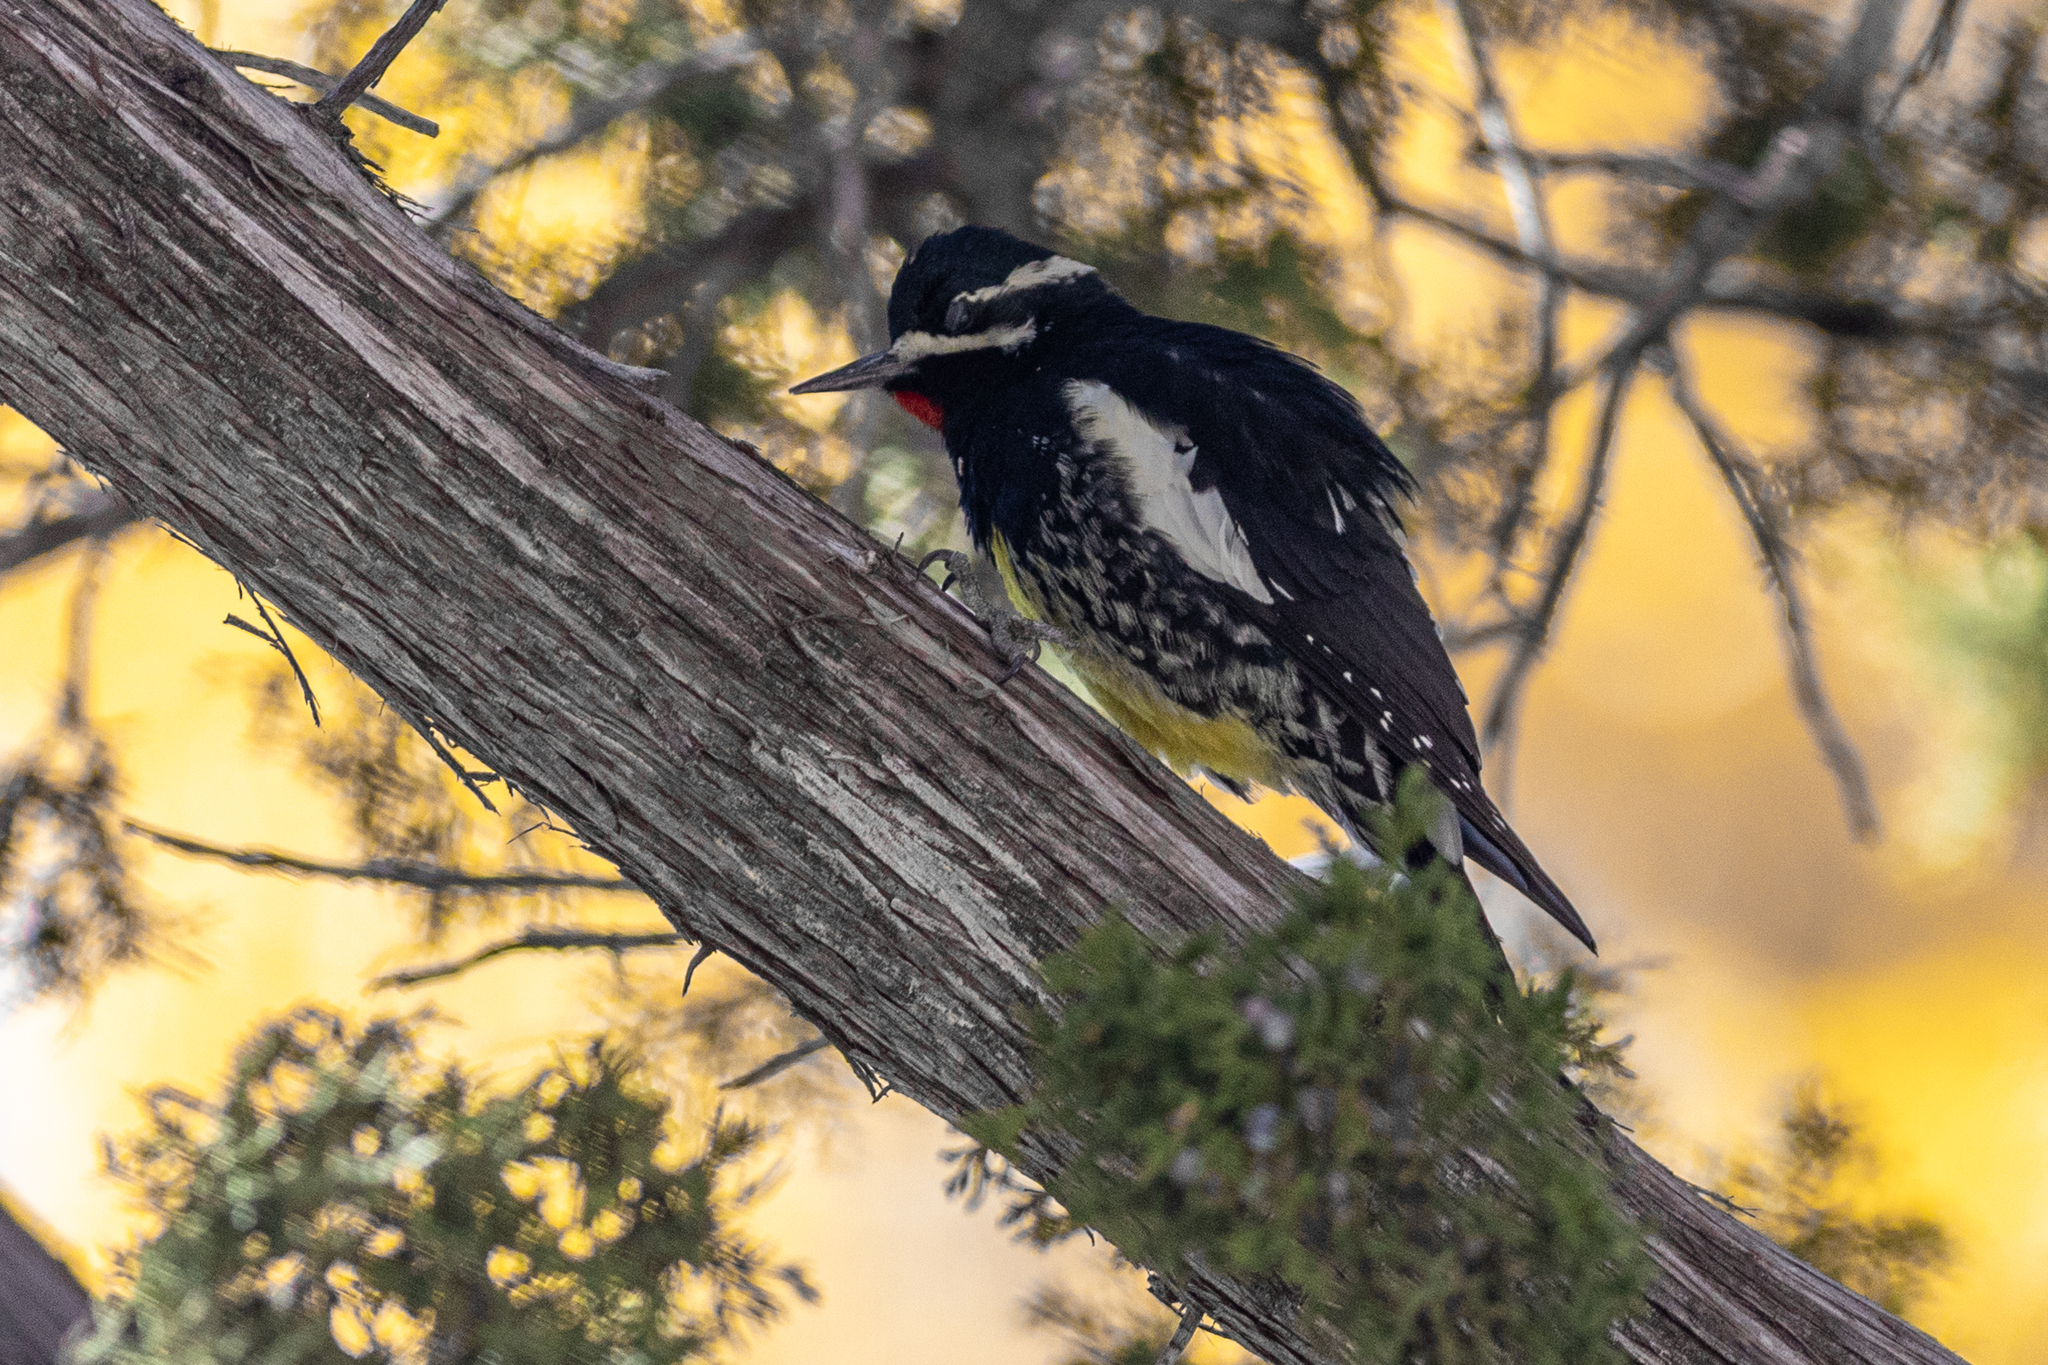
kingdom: Animalia
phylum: Chordata
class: Aves
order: Piciformes
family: Picidae
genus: Sphyrapicus
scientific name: Sphyrapicus thyroideus
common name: Williamson's sapsucker
